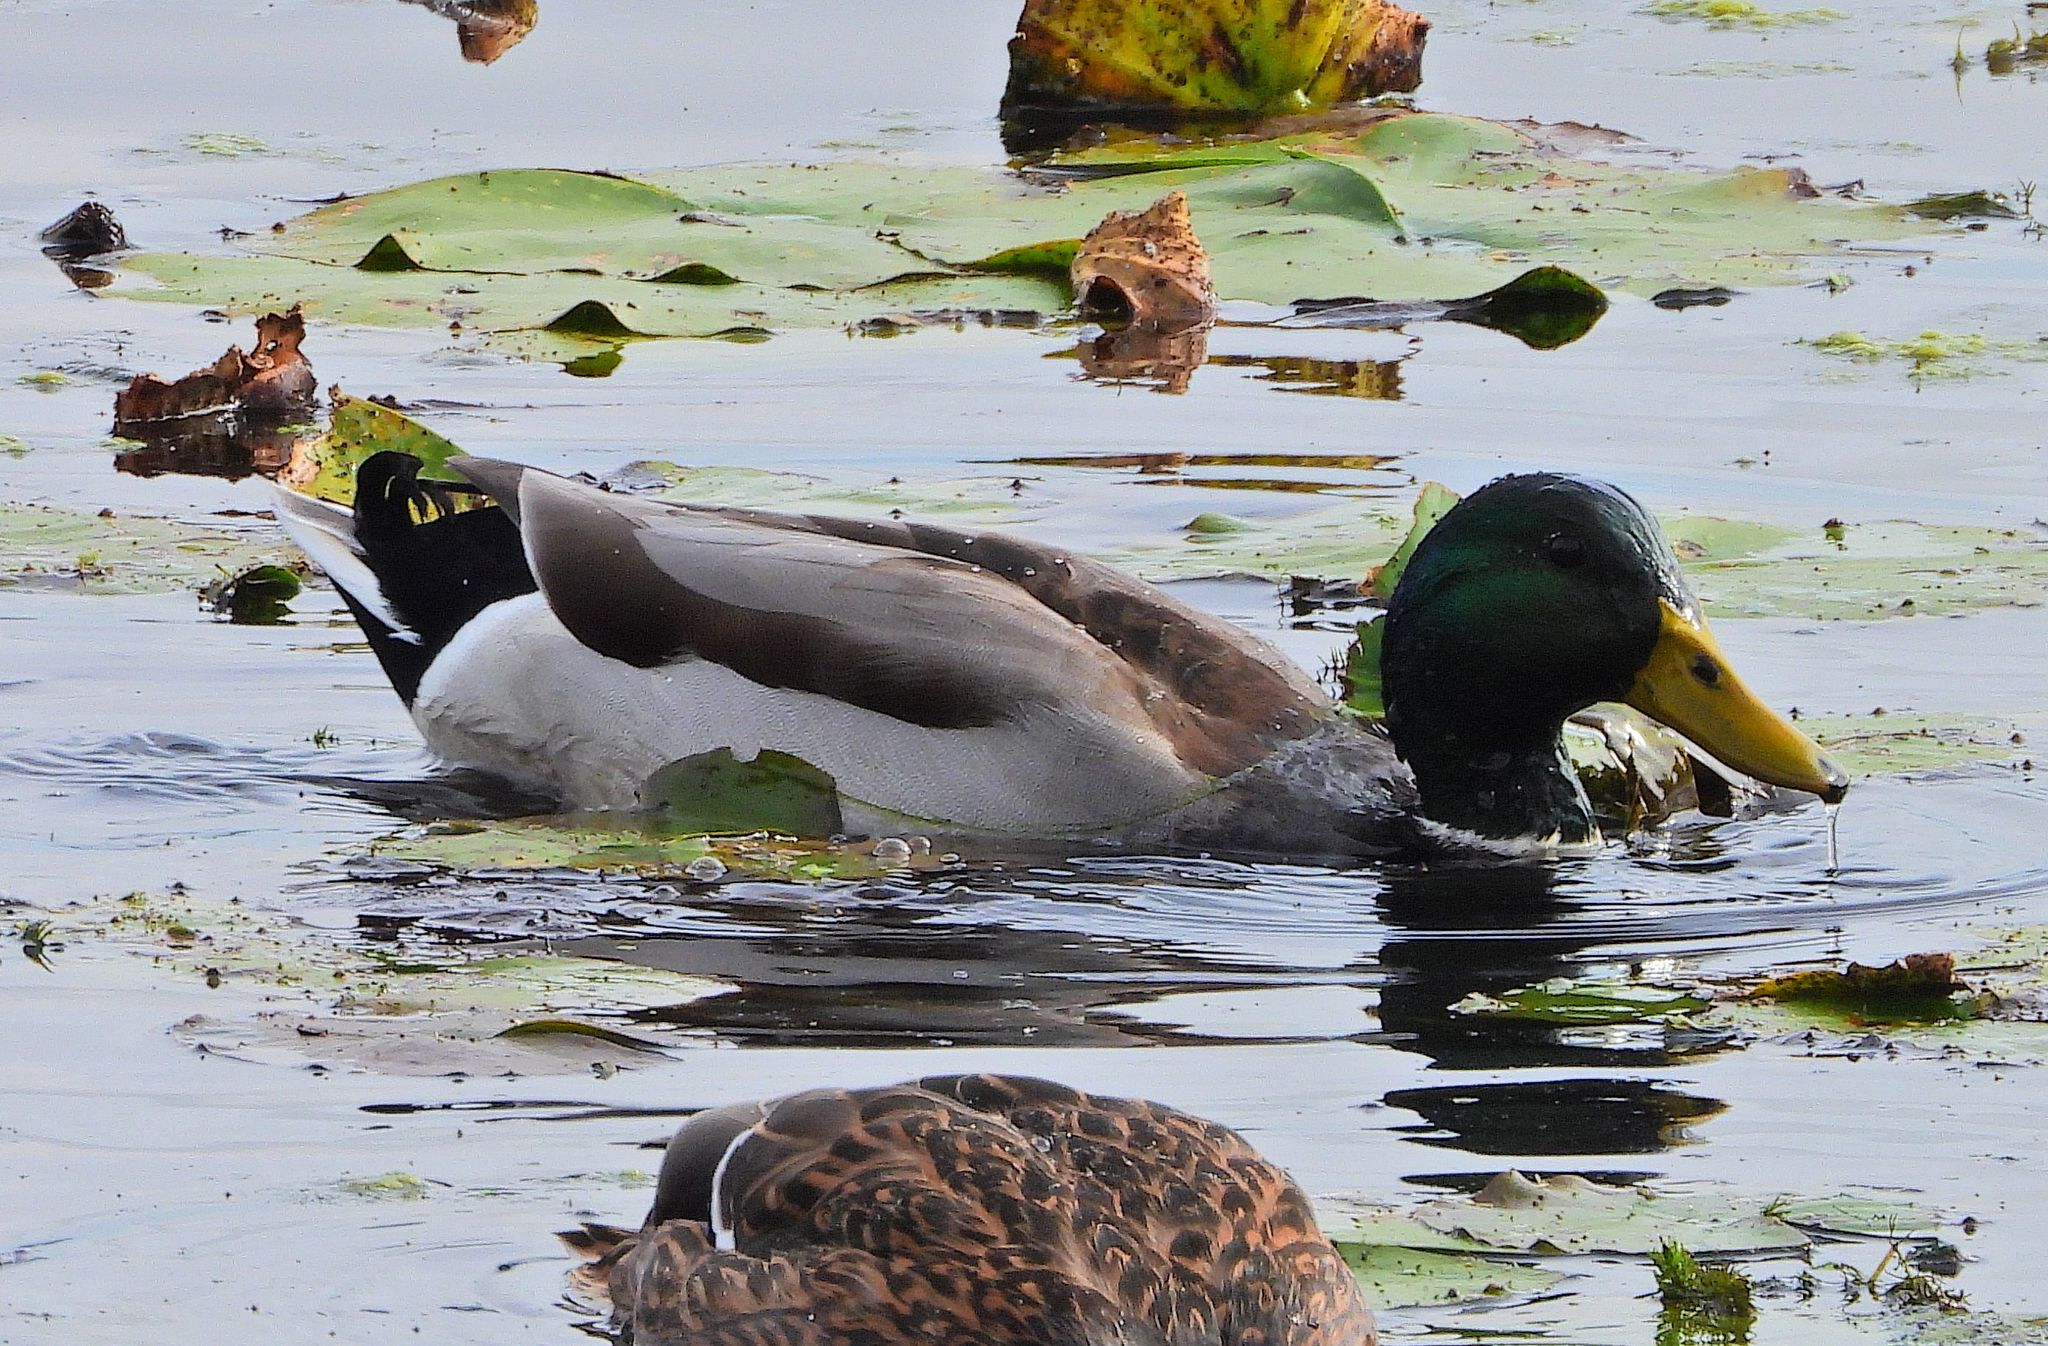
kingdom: Animalia
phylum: Chordata
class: Aves
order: Anseriformes
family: Anatidae
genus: Anas
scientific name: Anas platyrhynchos
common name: Mallard
